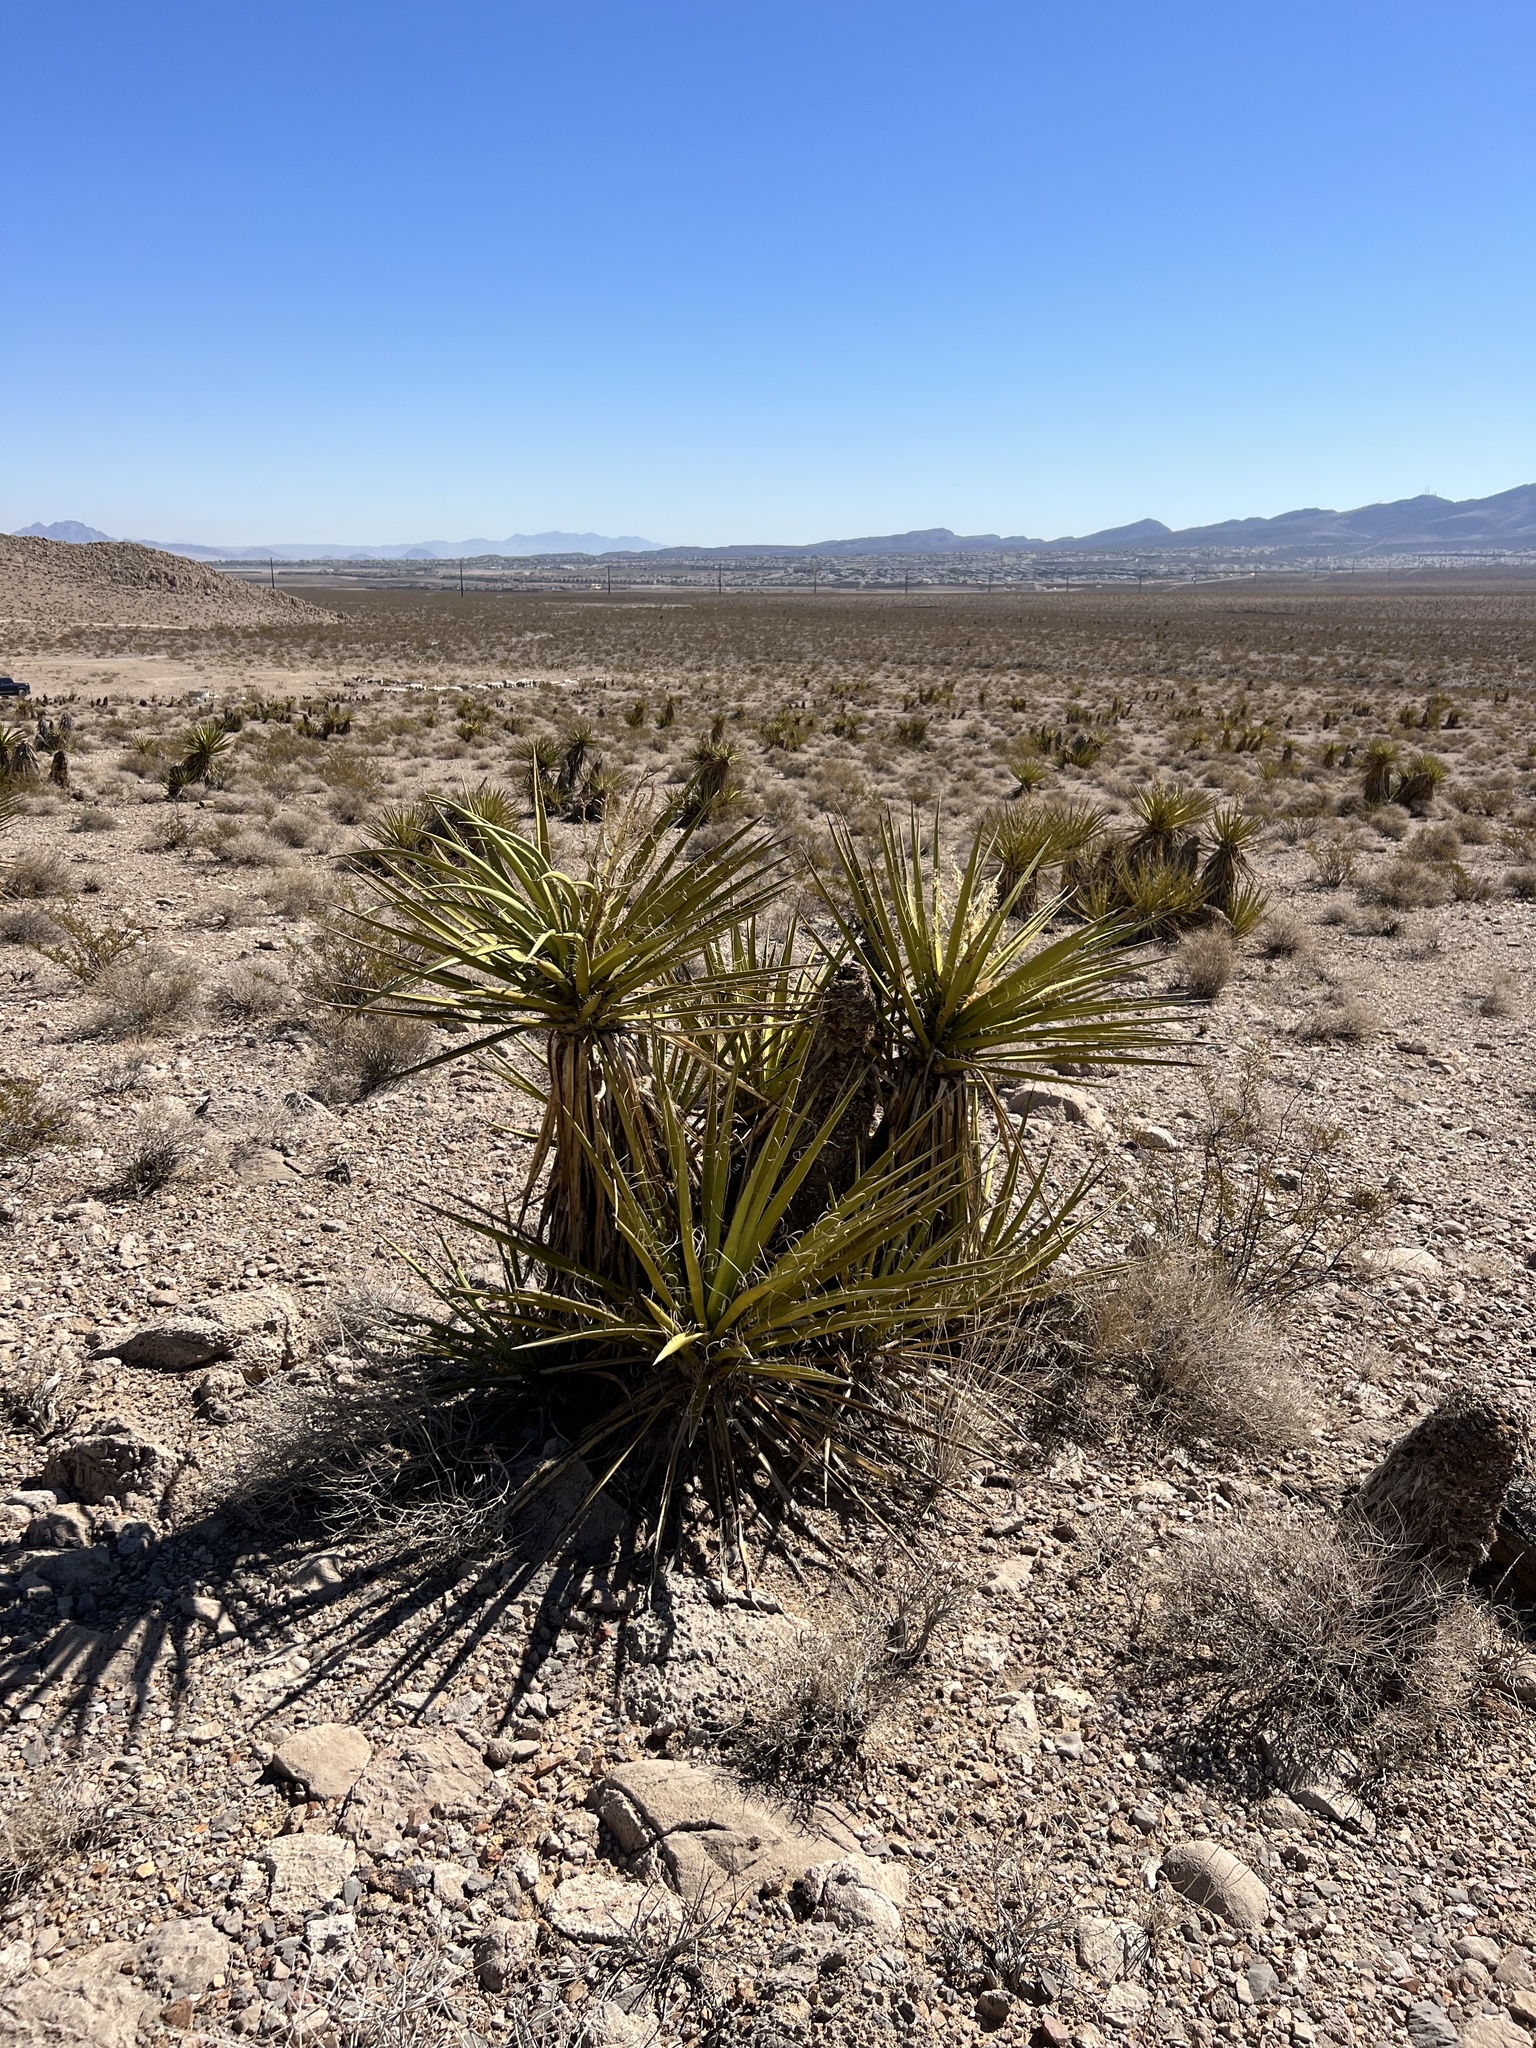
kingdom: Plantae
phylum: Tracheophyta
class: Liliopsida
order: Asparagales
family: Asparagaceae
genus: Yucca
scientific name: Yucca schidigera
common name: Mojave yucca
